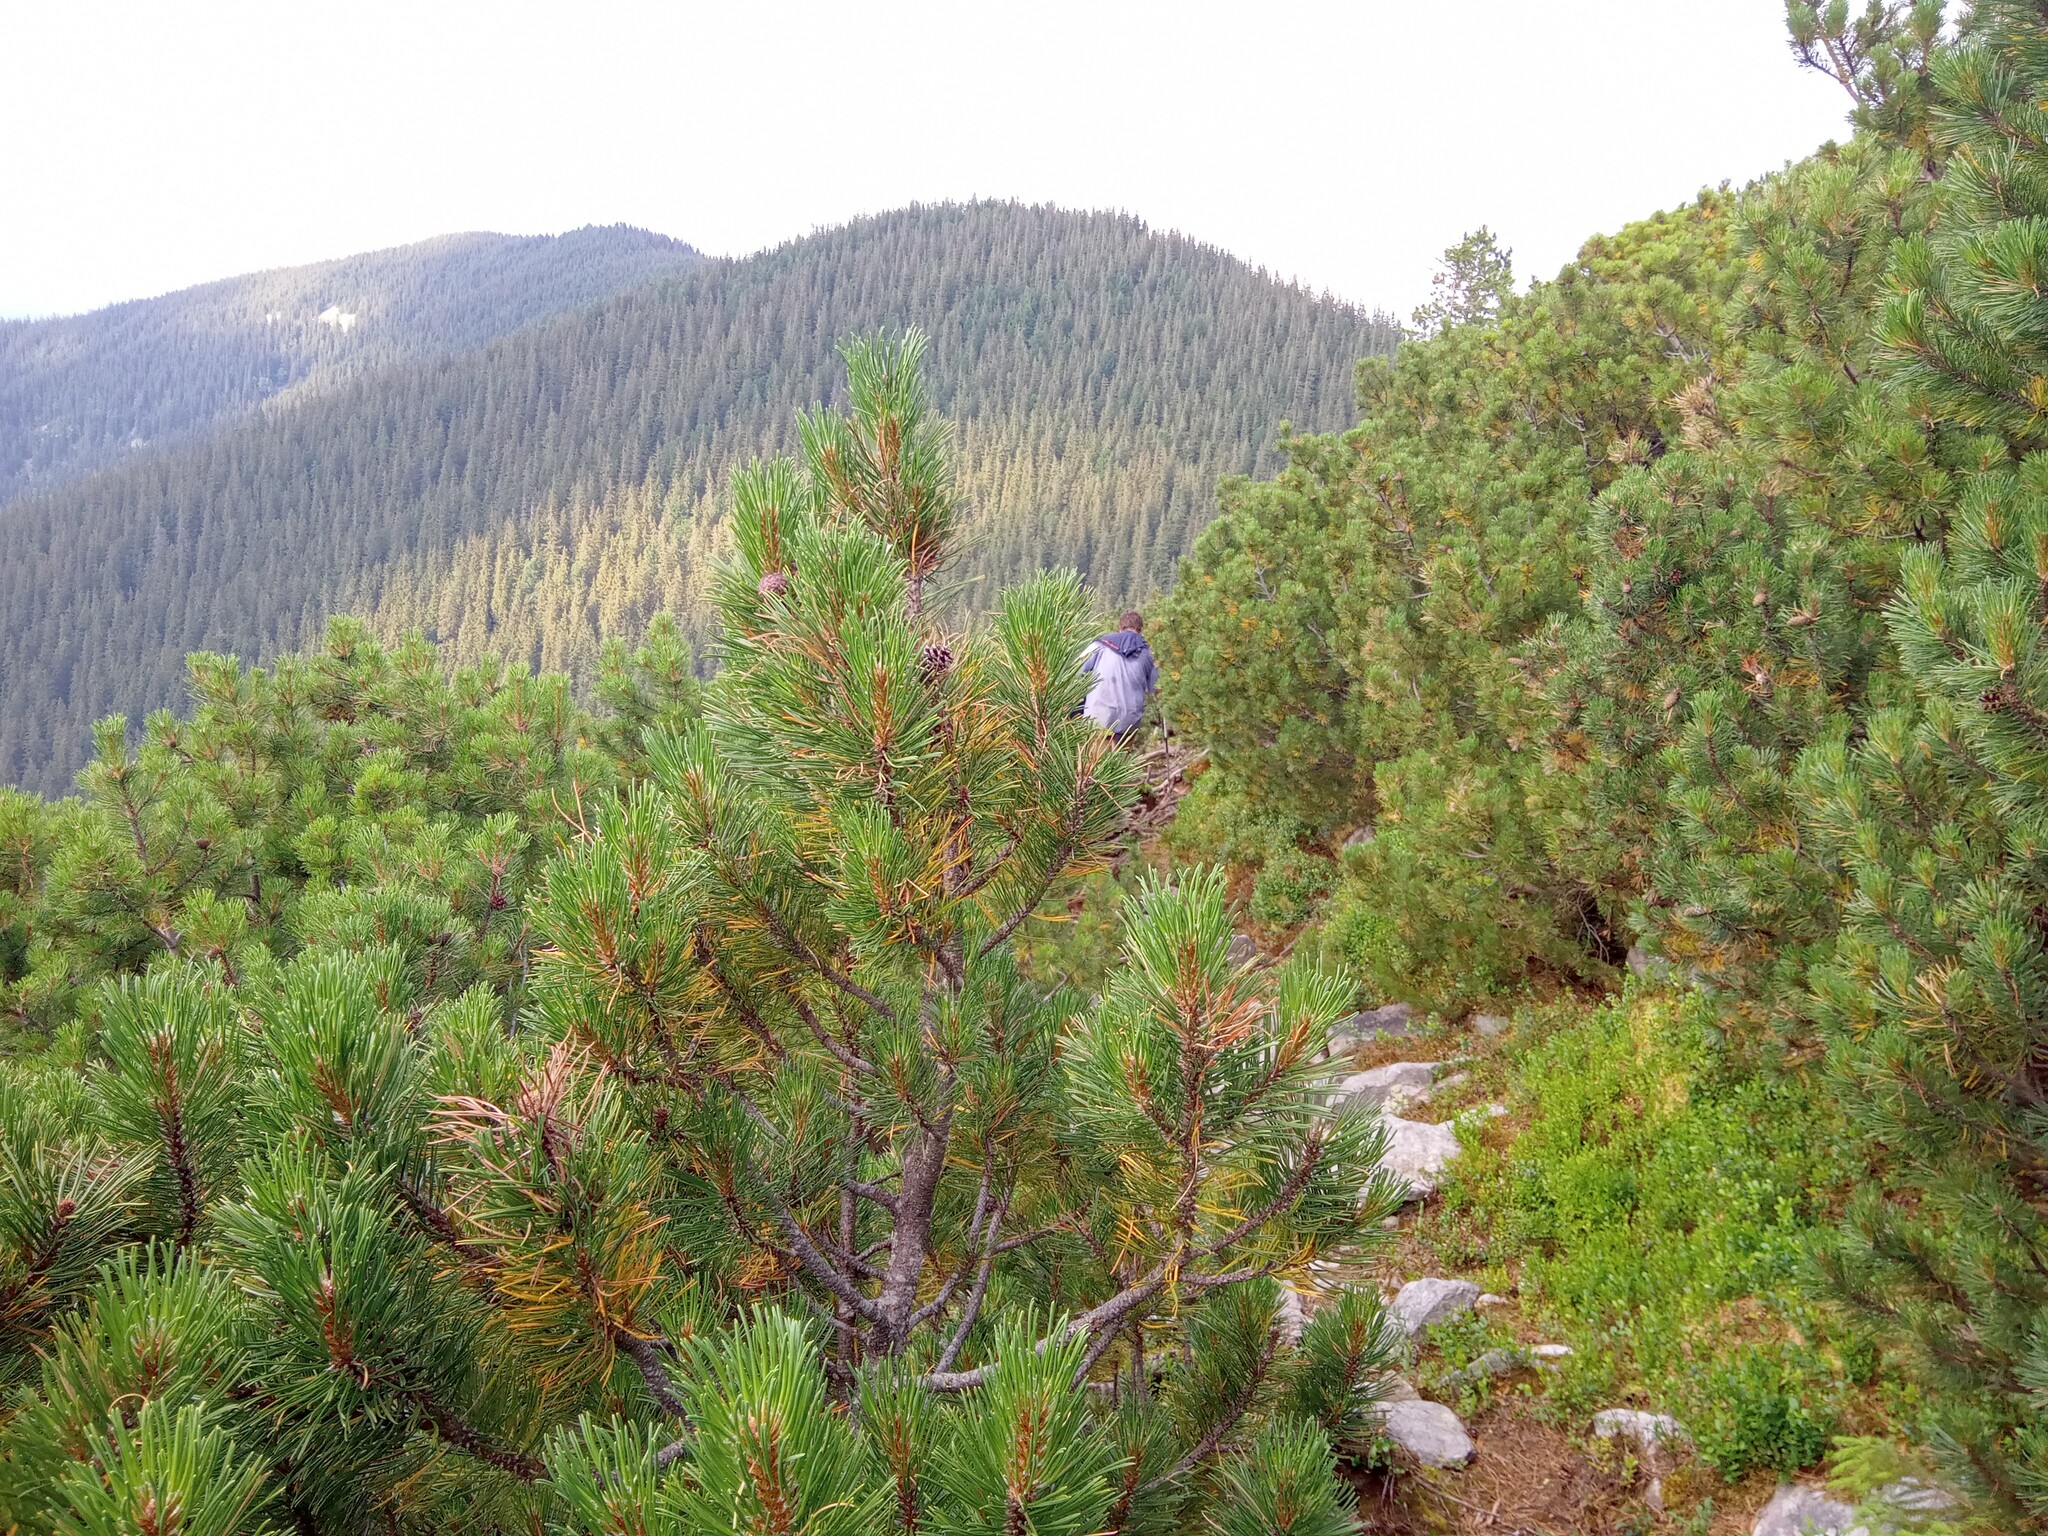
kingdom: Plantae
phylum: Tracheophyta
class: Pinopsida
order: Pinales
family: Pinaceae
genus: Pinus
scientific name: Pinus mugo
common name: Mugo pine
